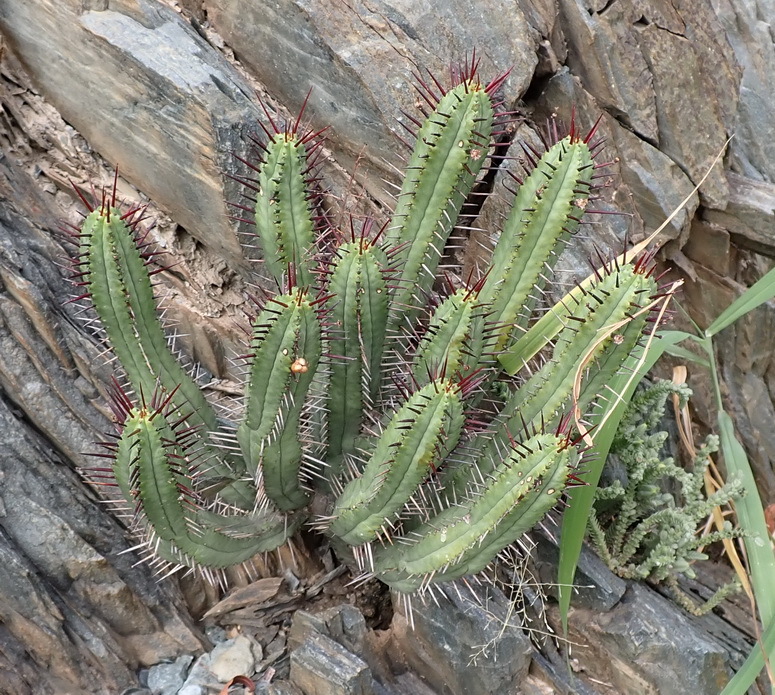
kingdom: Plantae
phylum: Tracheophyta
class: Magnoliopsida
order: Malpighiales
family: Euphorbiaceae
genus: Euphorbia
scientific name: Euphorbia heptagona
